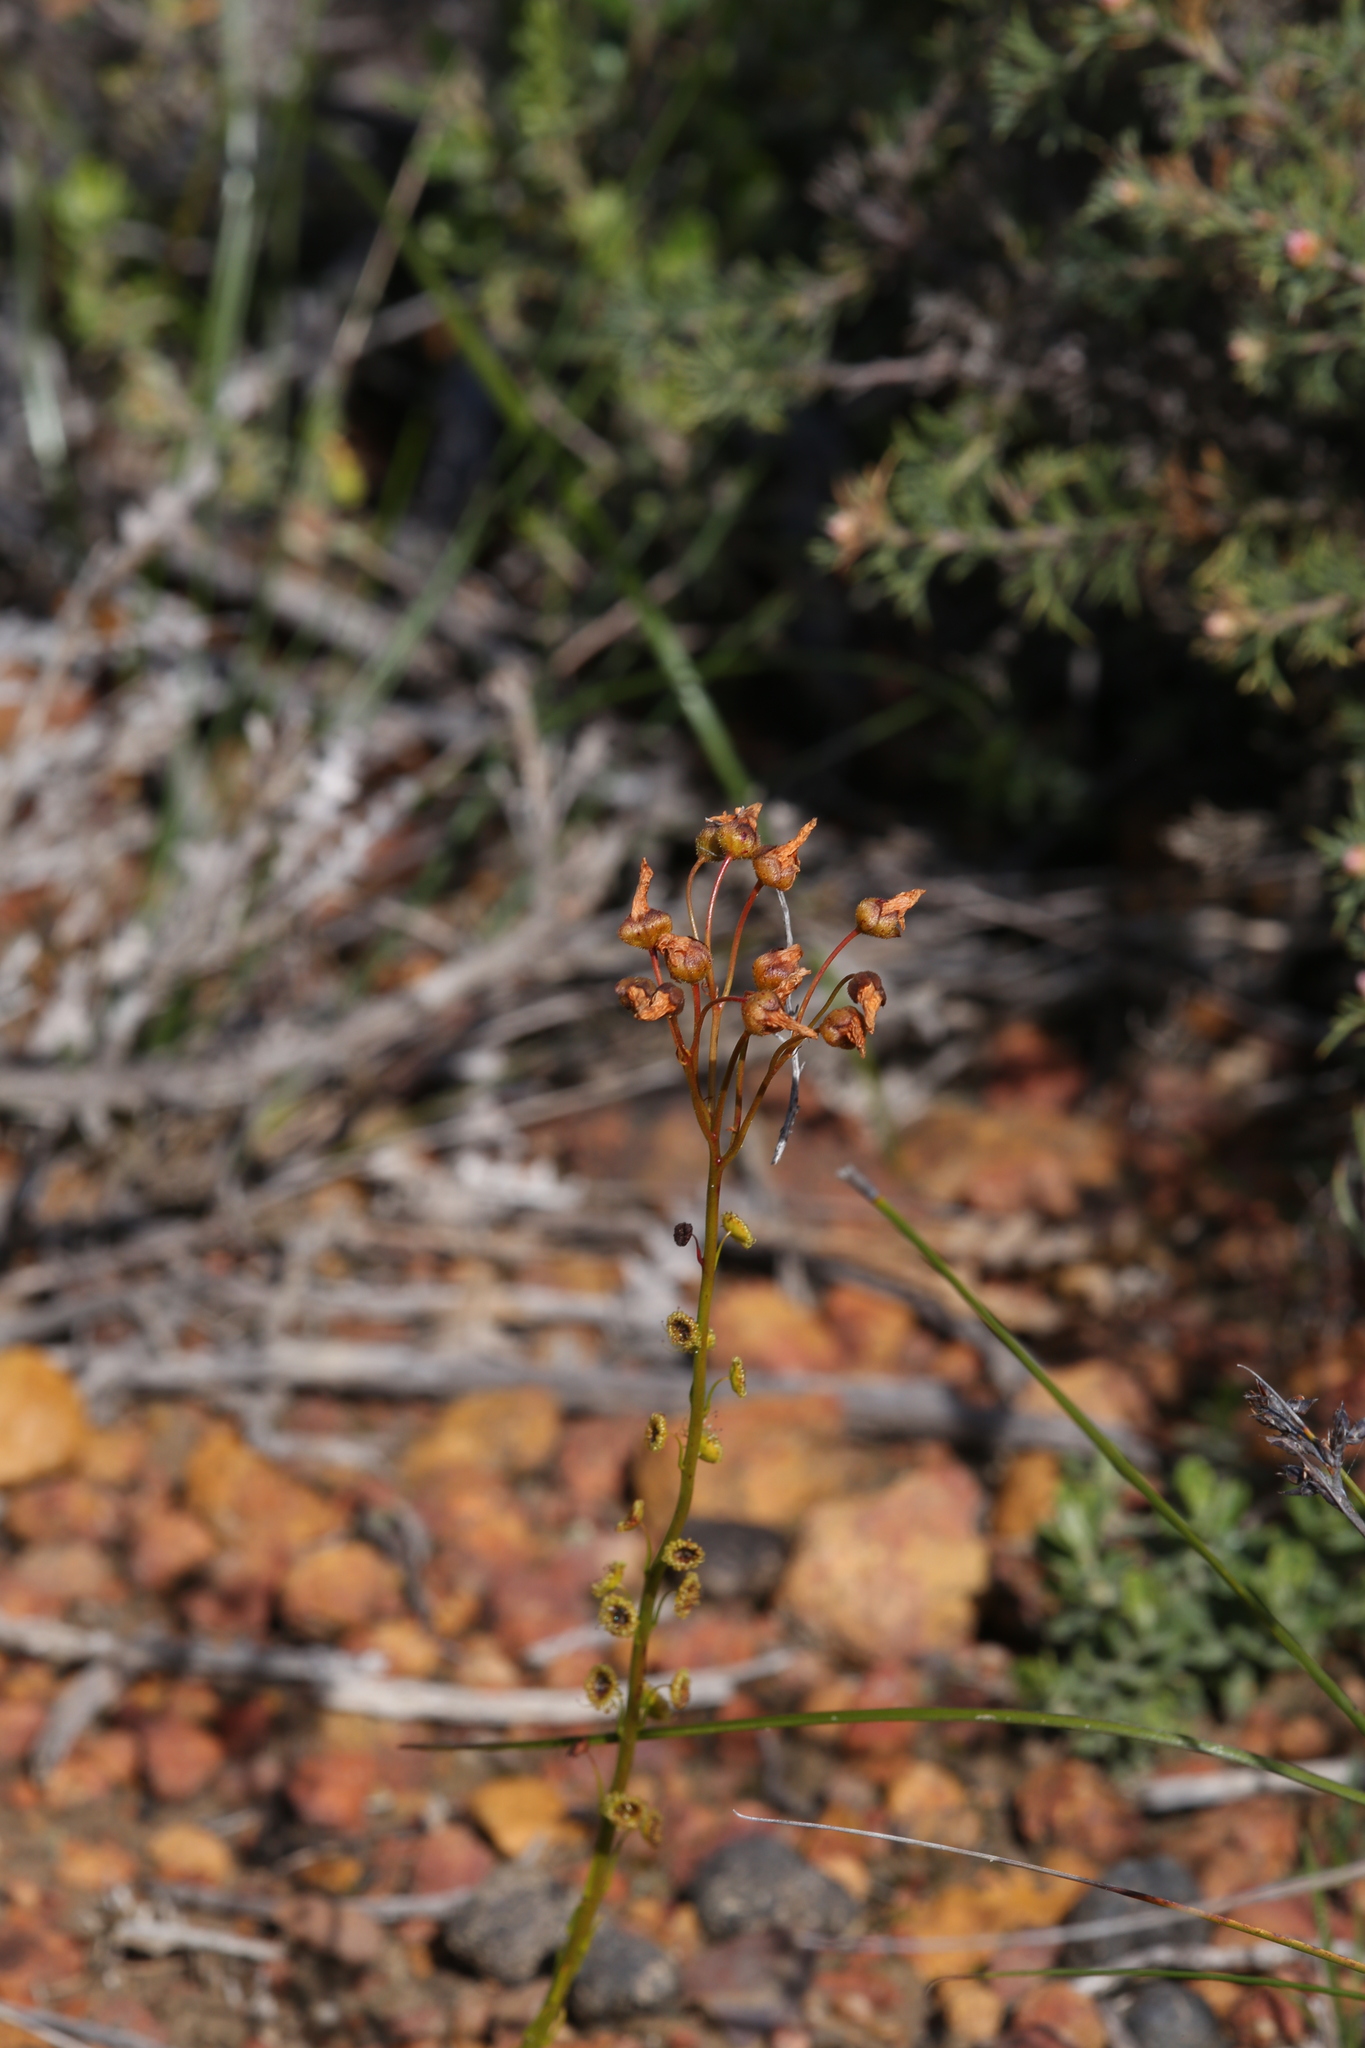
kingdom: Plantae
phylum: Tracheophyta
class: Magnoliopsida
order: Caryophyllales
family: Droseraceae
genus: Drosera
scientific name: Drosera marchantii
